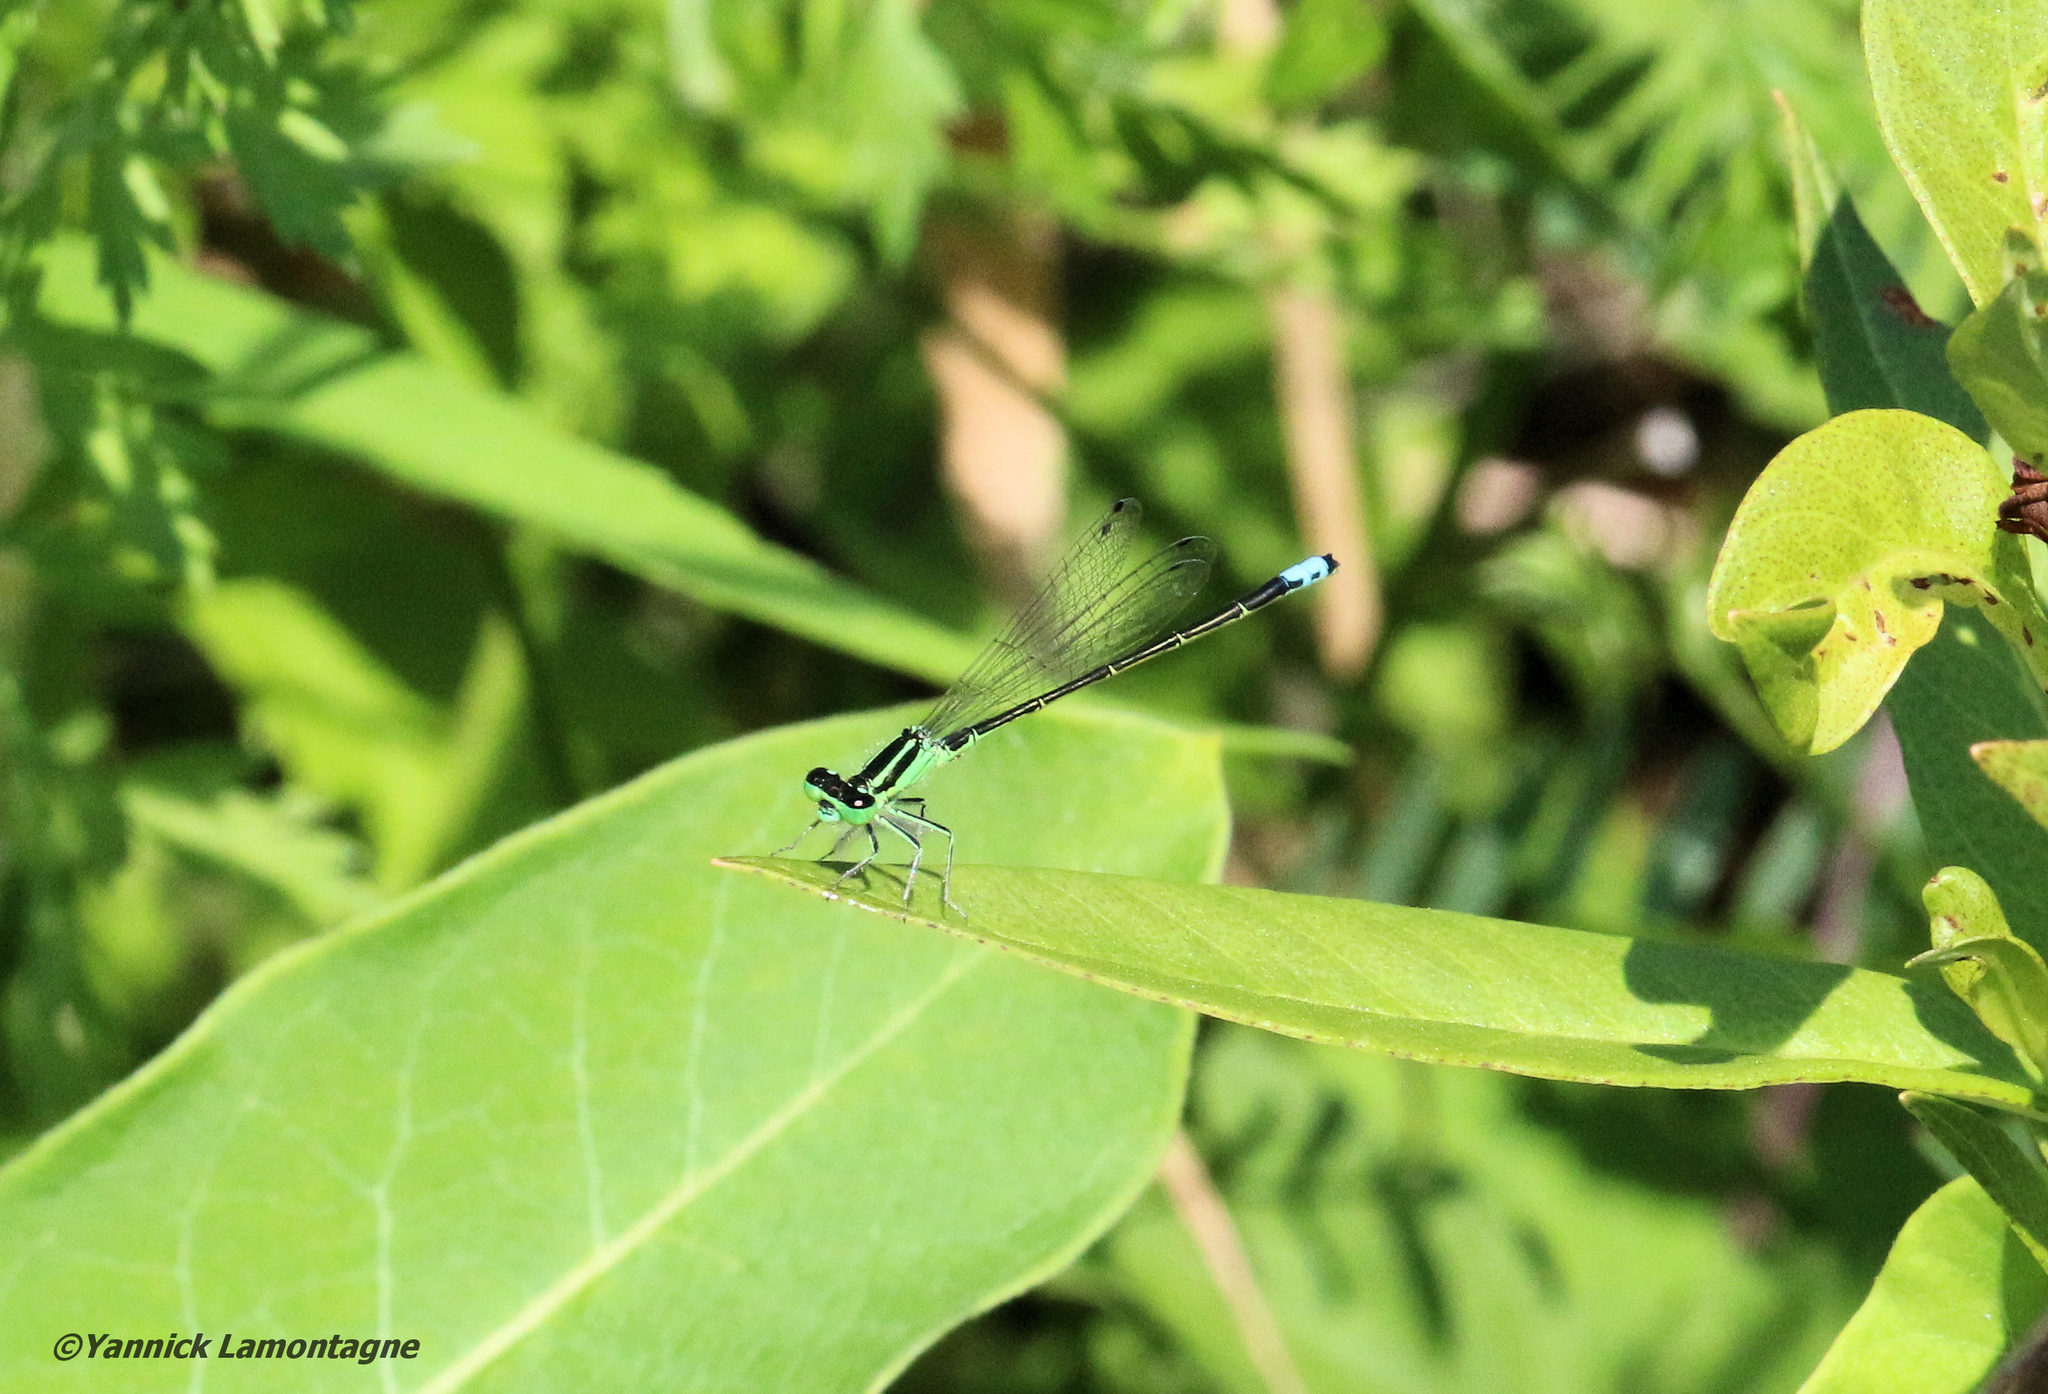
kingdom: Animalia
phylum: Arthropoda
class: Insecta
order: Odonata
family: Coenagrionidae
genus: Ischnura
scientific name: Ischnura verticalis
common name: Eastern forktail
